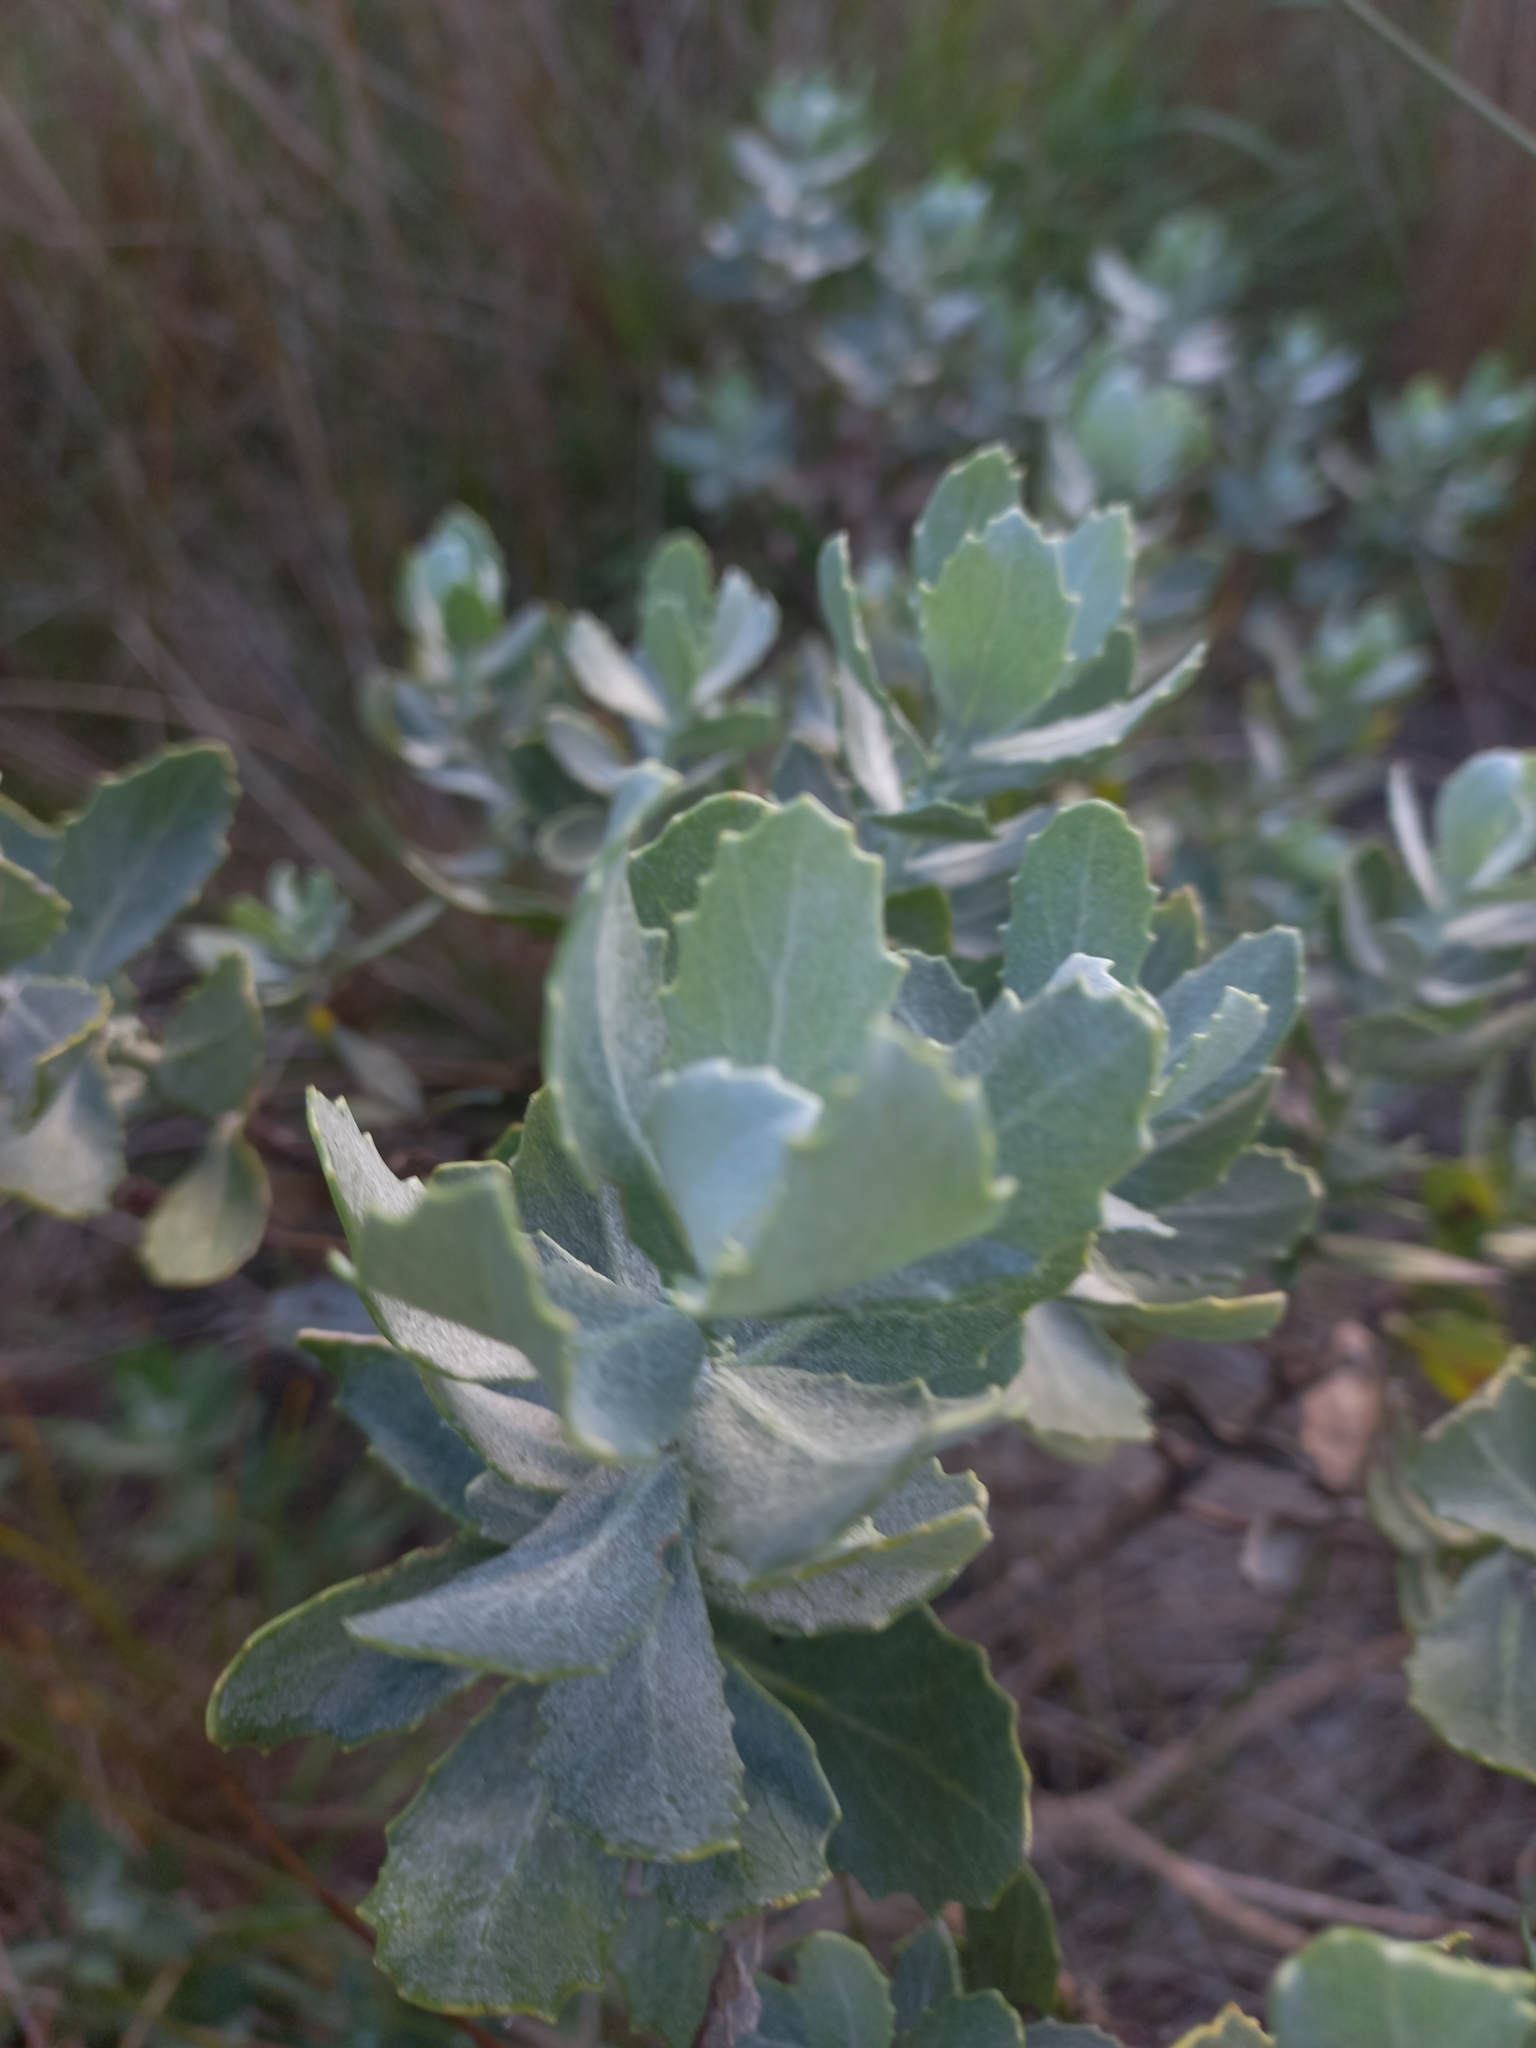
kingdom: Plantae
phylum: Tracheophyta
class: Magnoliopsida
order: Asterales
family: Asteraceae
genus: Senecio
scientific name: Senecio halimifolius
